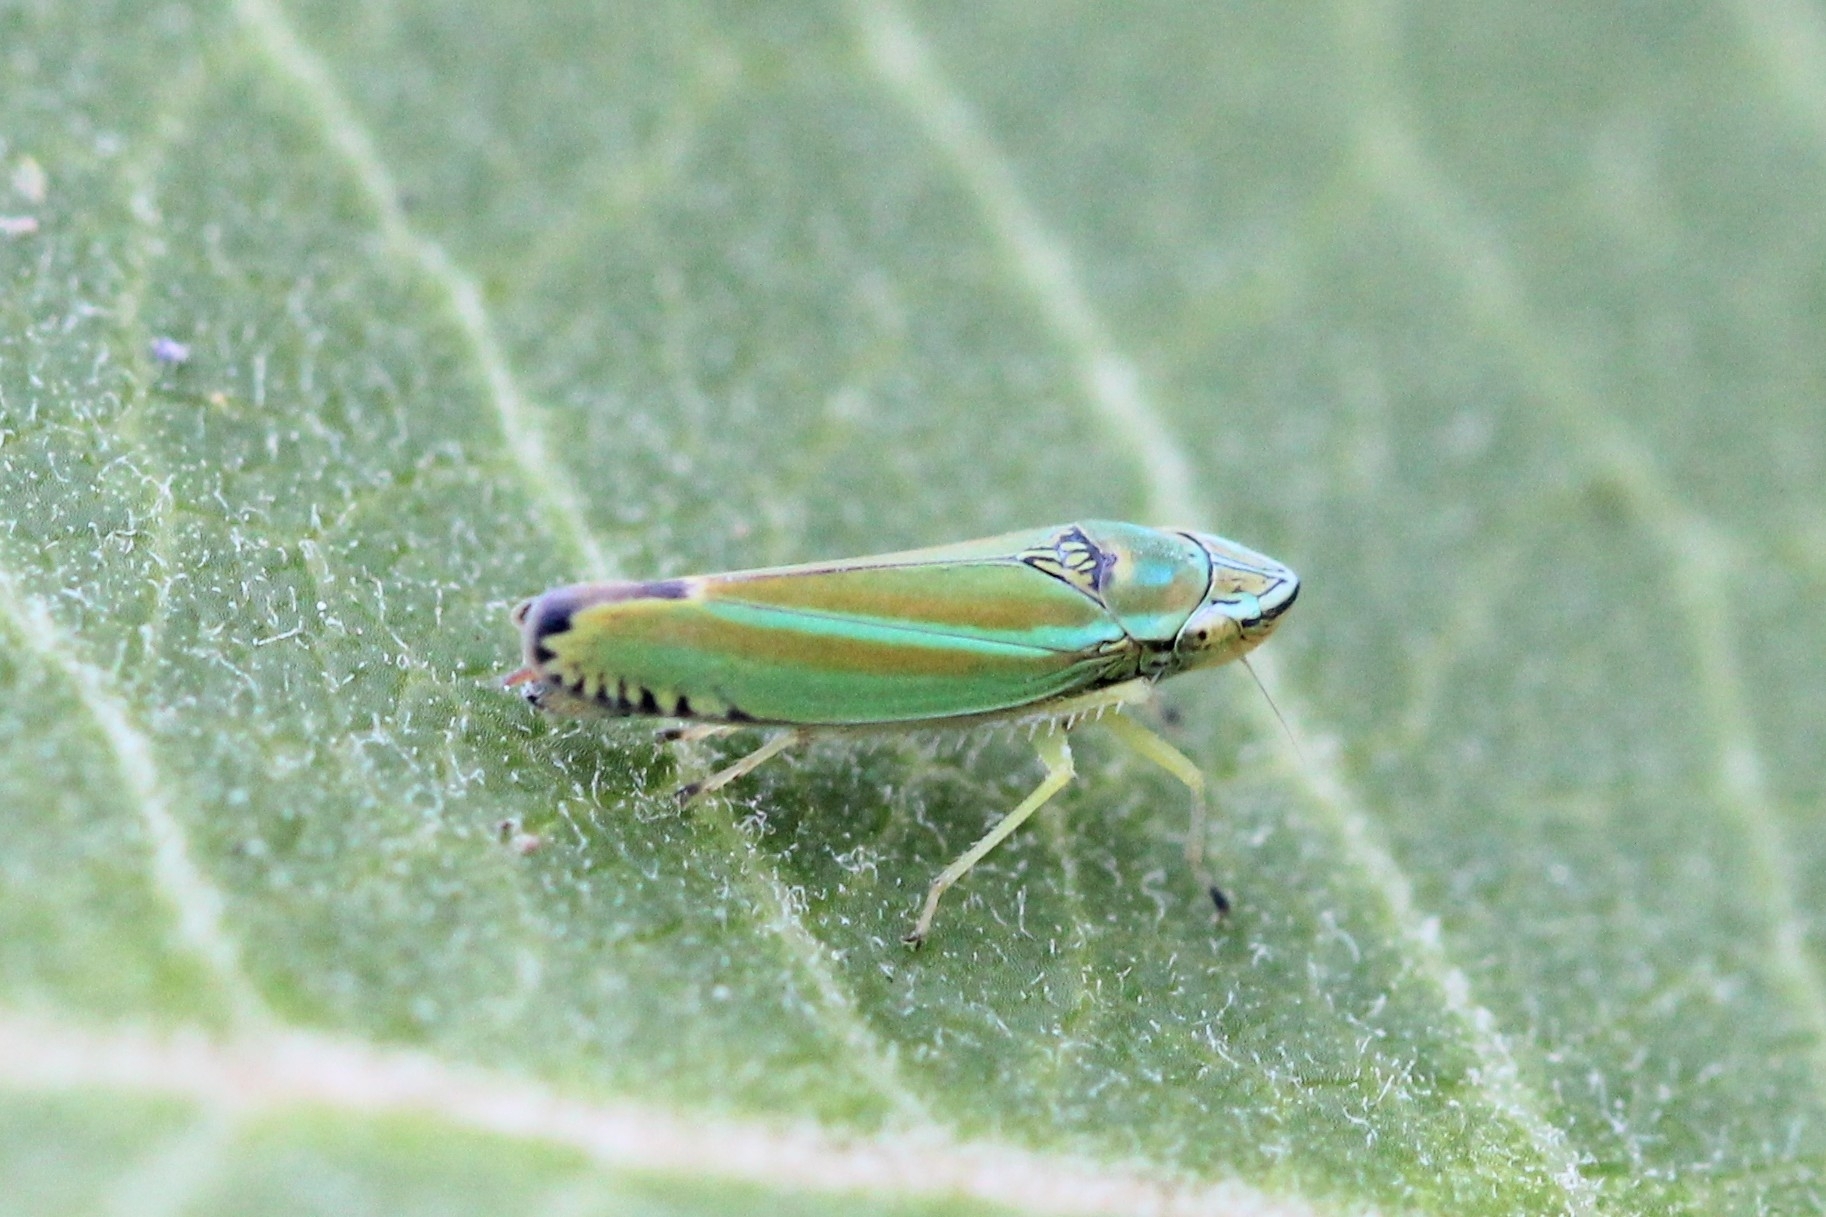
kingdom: Animalia
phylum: Arthropoda
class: Insecta
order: Hemiptera
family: Cicadellidae
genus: Graphocephala
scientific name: Graphocephala versuta
